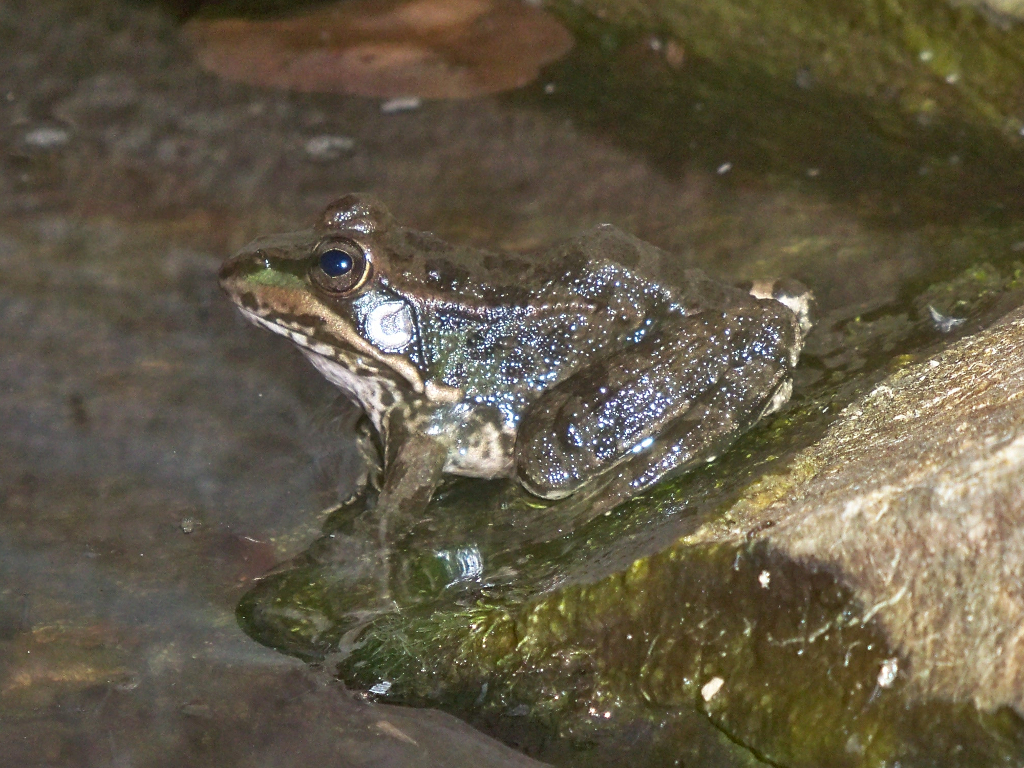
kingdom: Animalia
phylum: Chordata
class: Amphibia
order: Anura
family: Ranidae
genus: Pelophylax
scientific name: Pelophylax perezi
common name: Perez's frog
